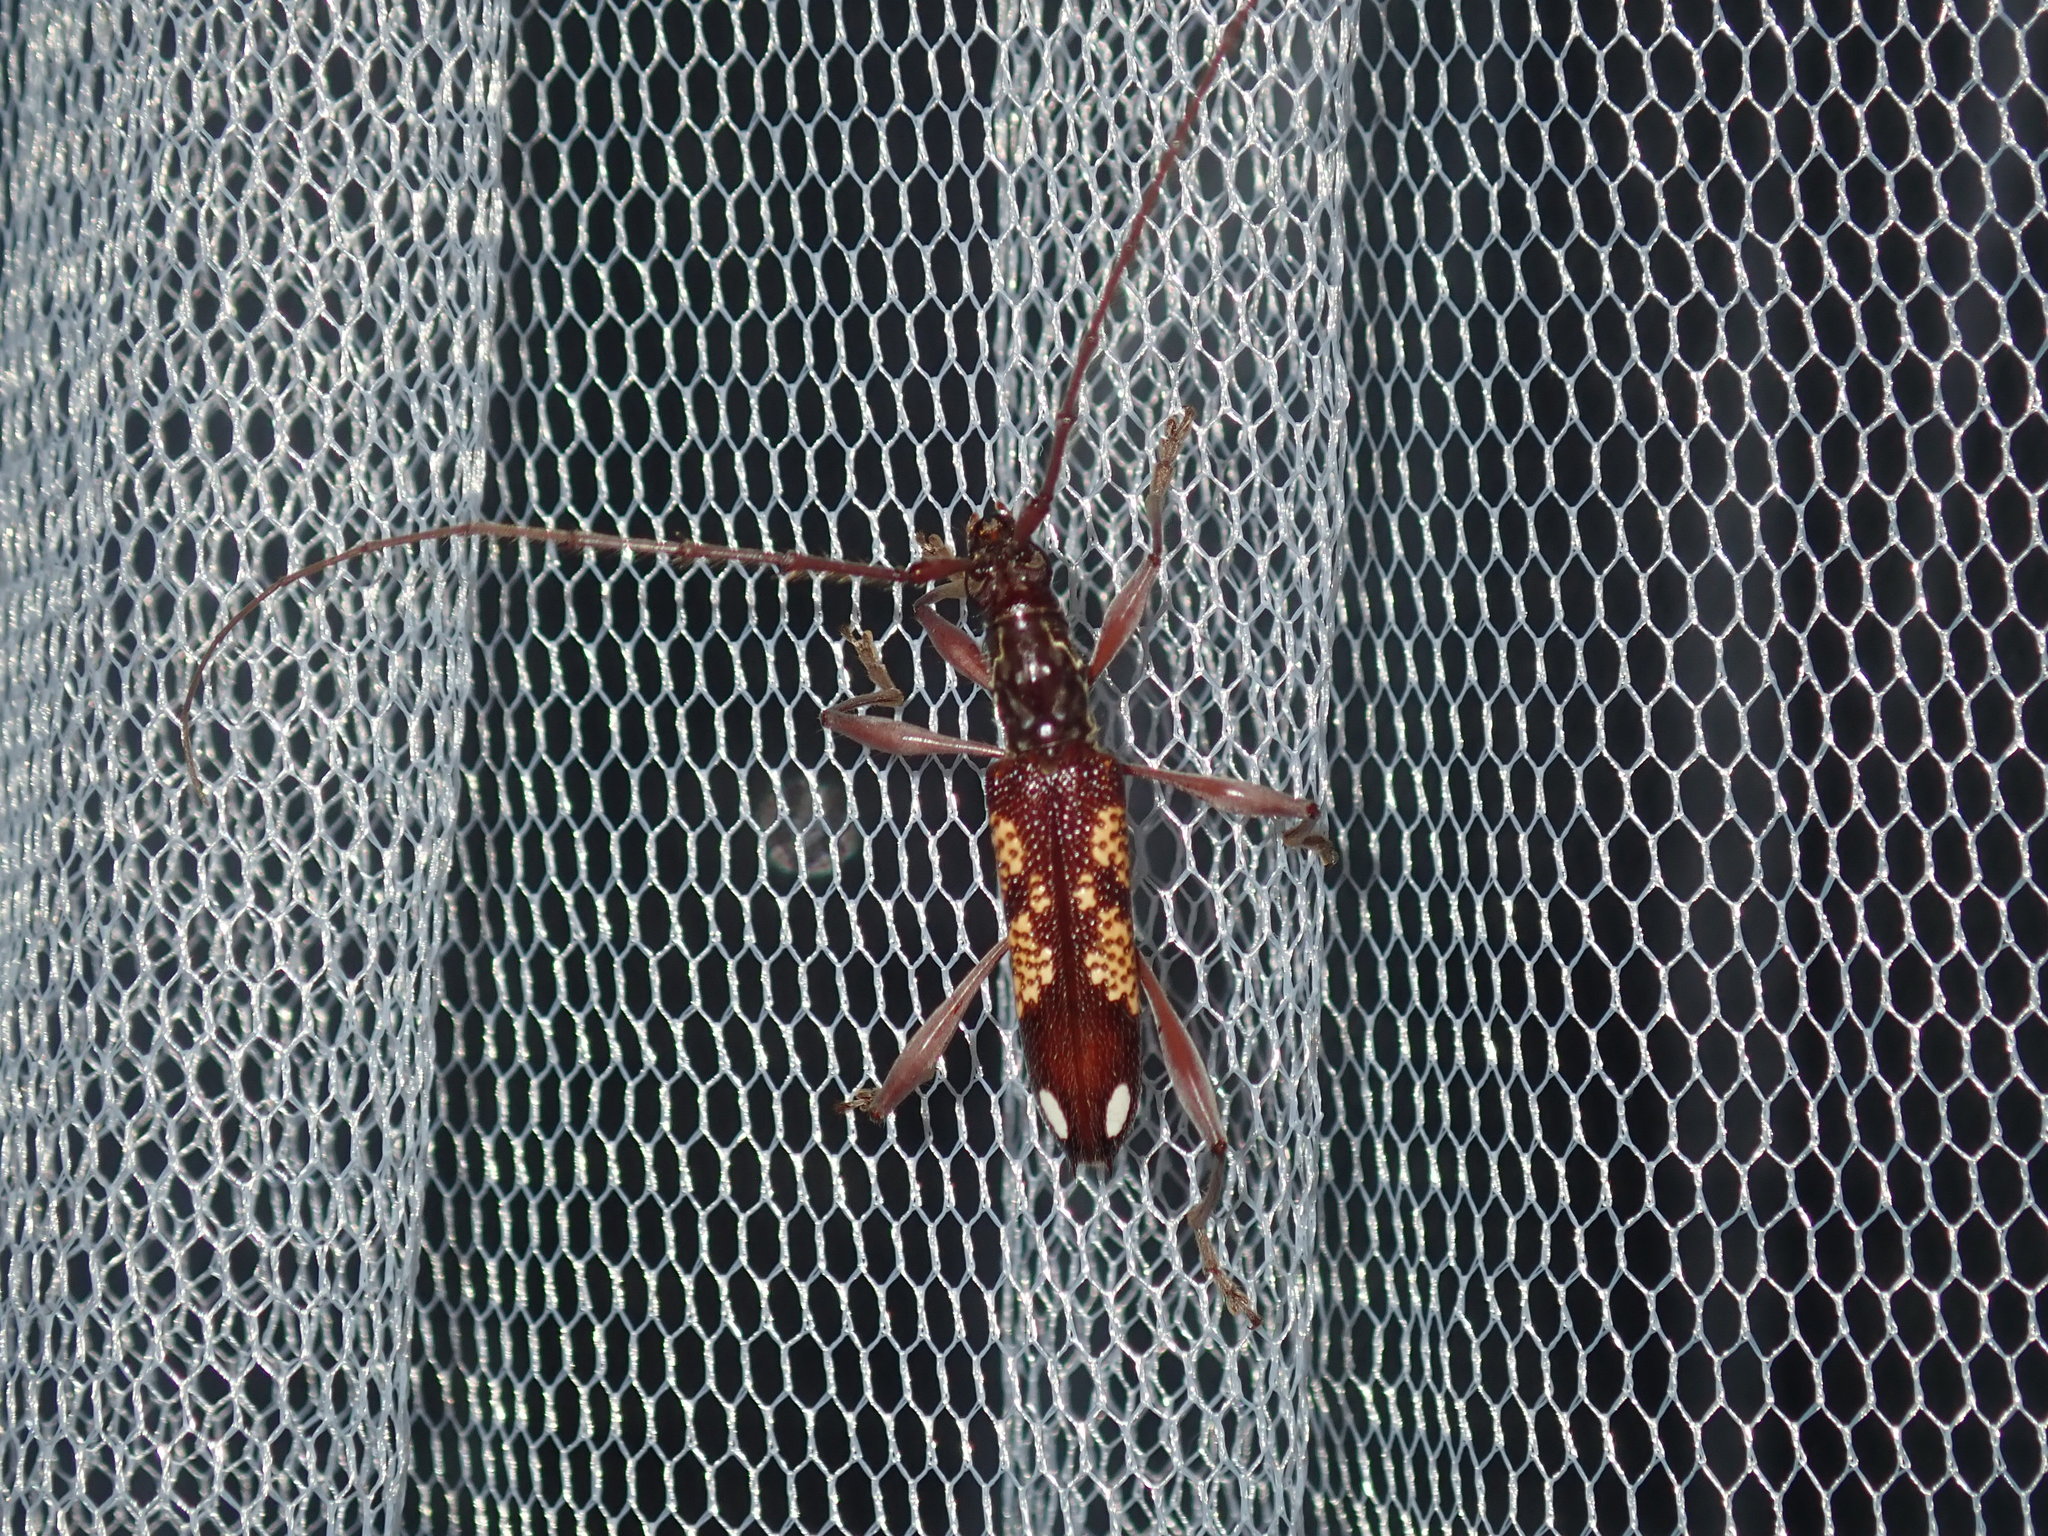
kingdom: Animalia
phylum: Arthropoda
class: Insecta
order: Coleoptera
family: Cerambycidae
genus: Coptocercus
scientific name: Coptocercus multitrichus
